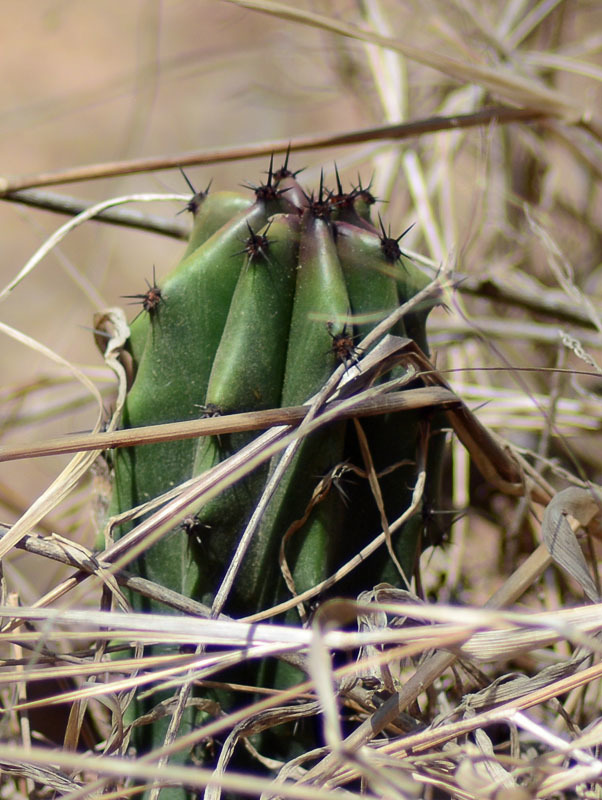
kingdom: Plantae
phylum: Tracheophyta
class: Magnoliopsida
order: Caryophyllales
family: Cactaceae
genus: Stenocereus
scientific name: Stenocereus martinezii
